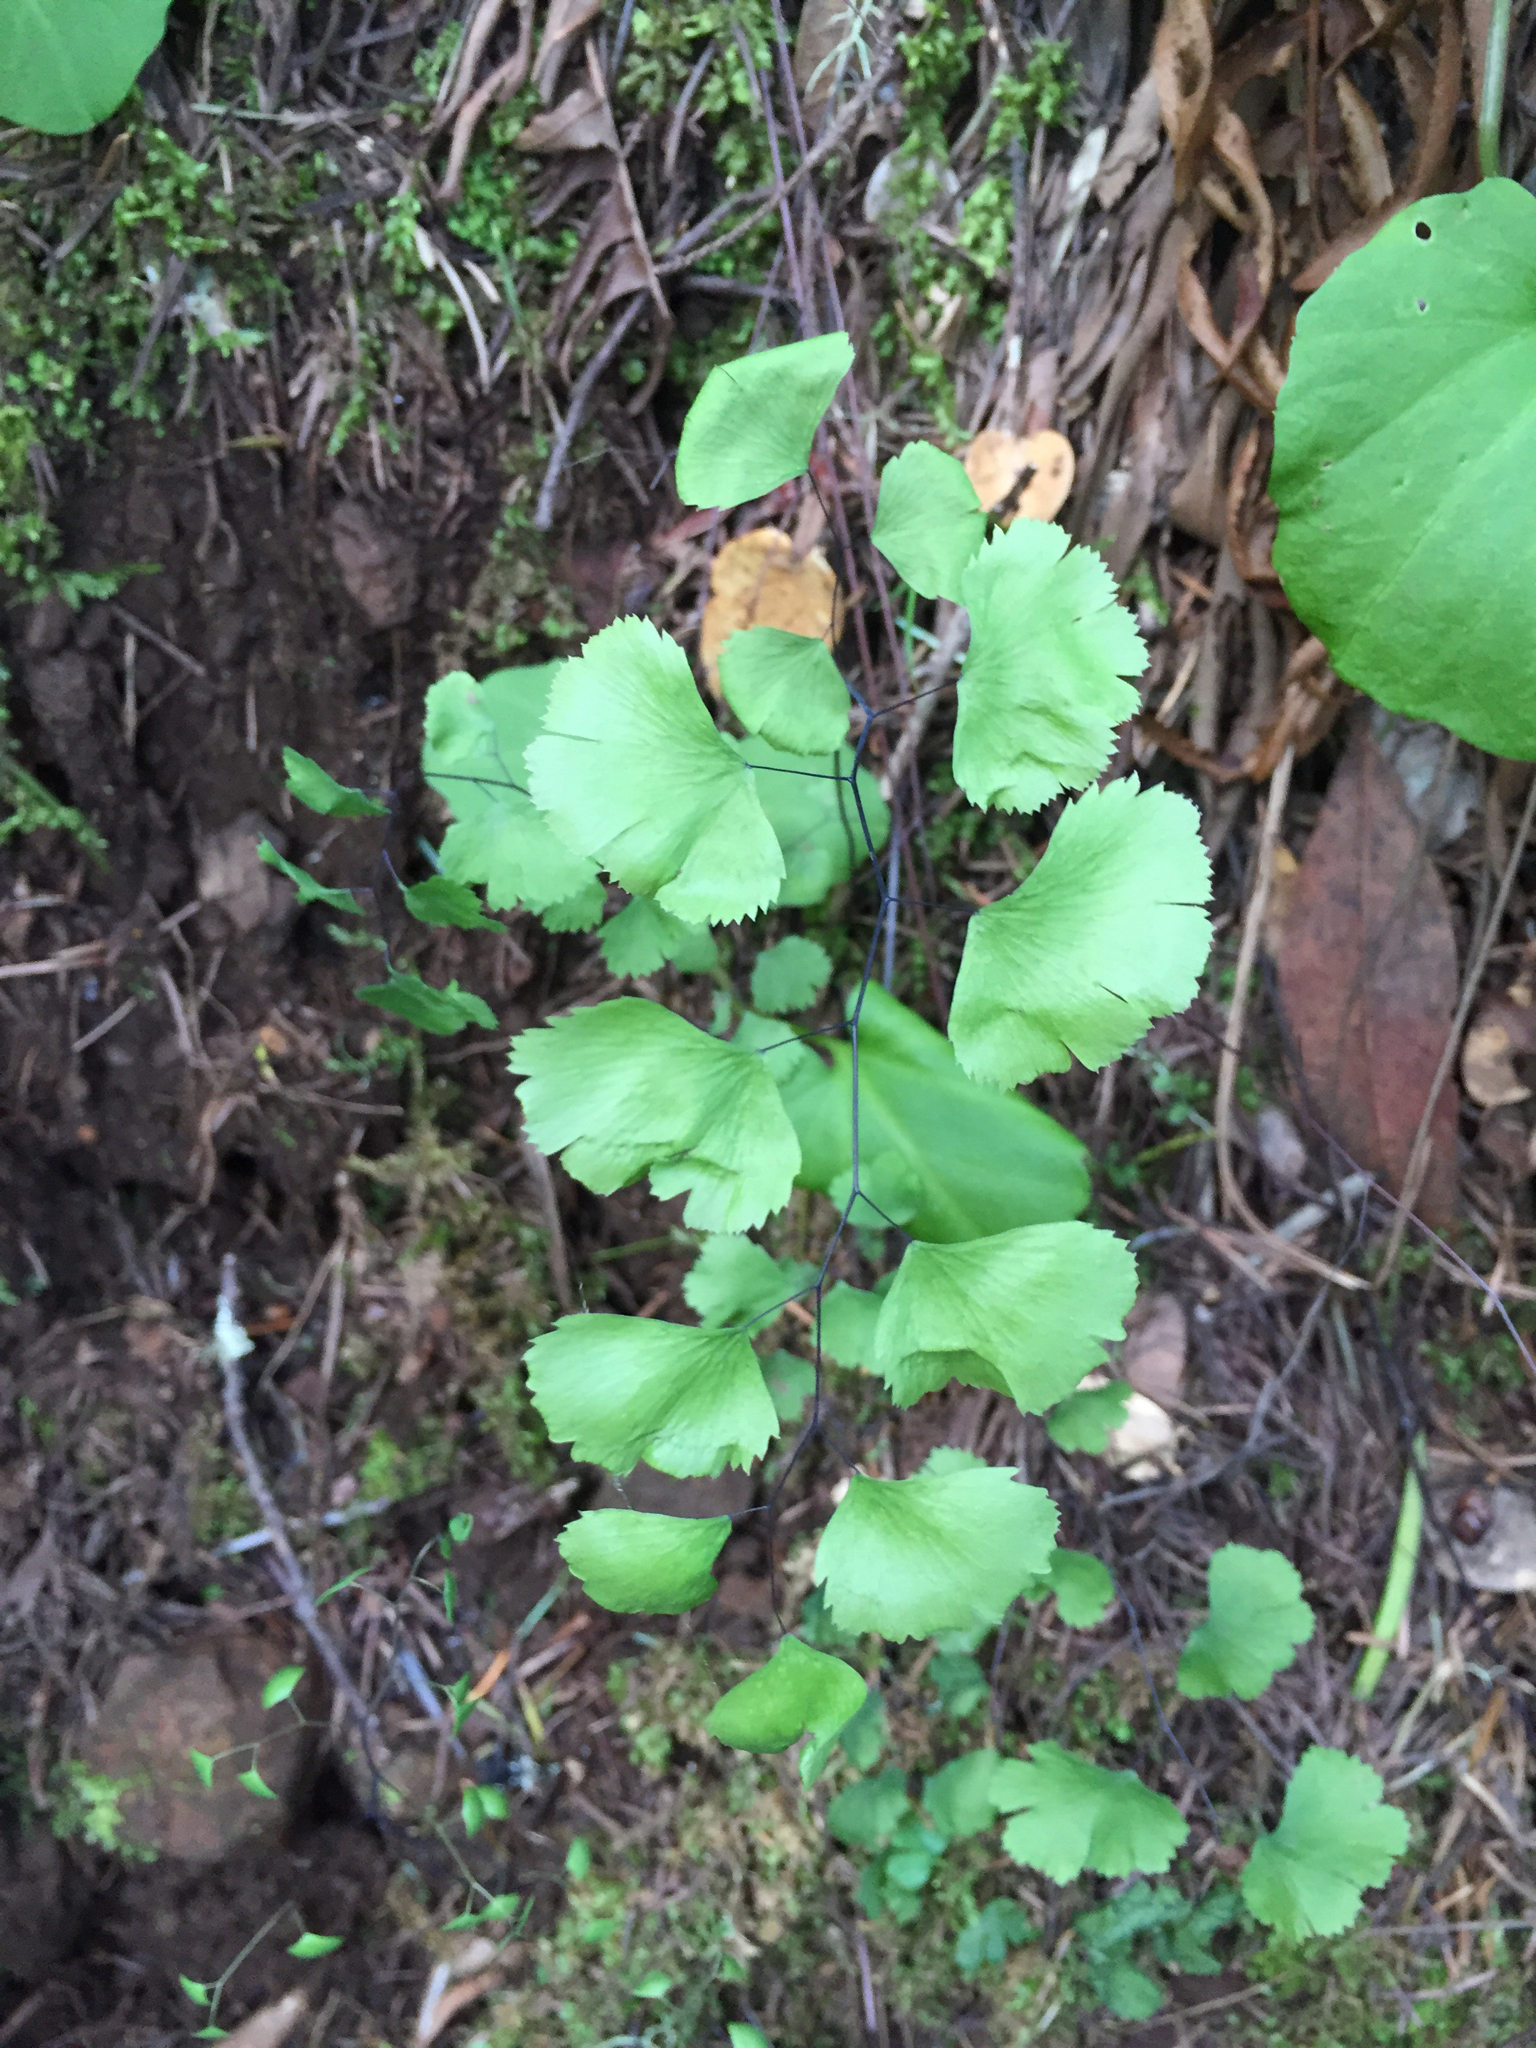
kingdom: Plantae
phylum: Tracheophyta
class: Polypodiopsida
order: Polypodiales
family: Pteridaceae
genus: Adiantum
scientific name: Adiantum jordanii
